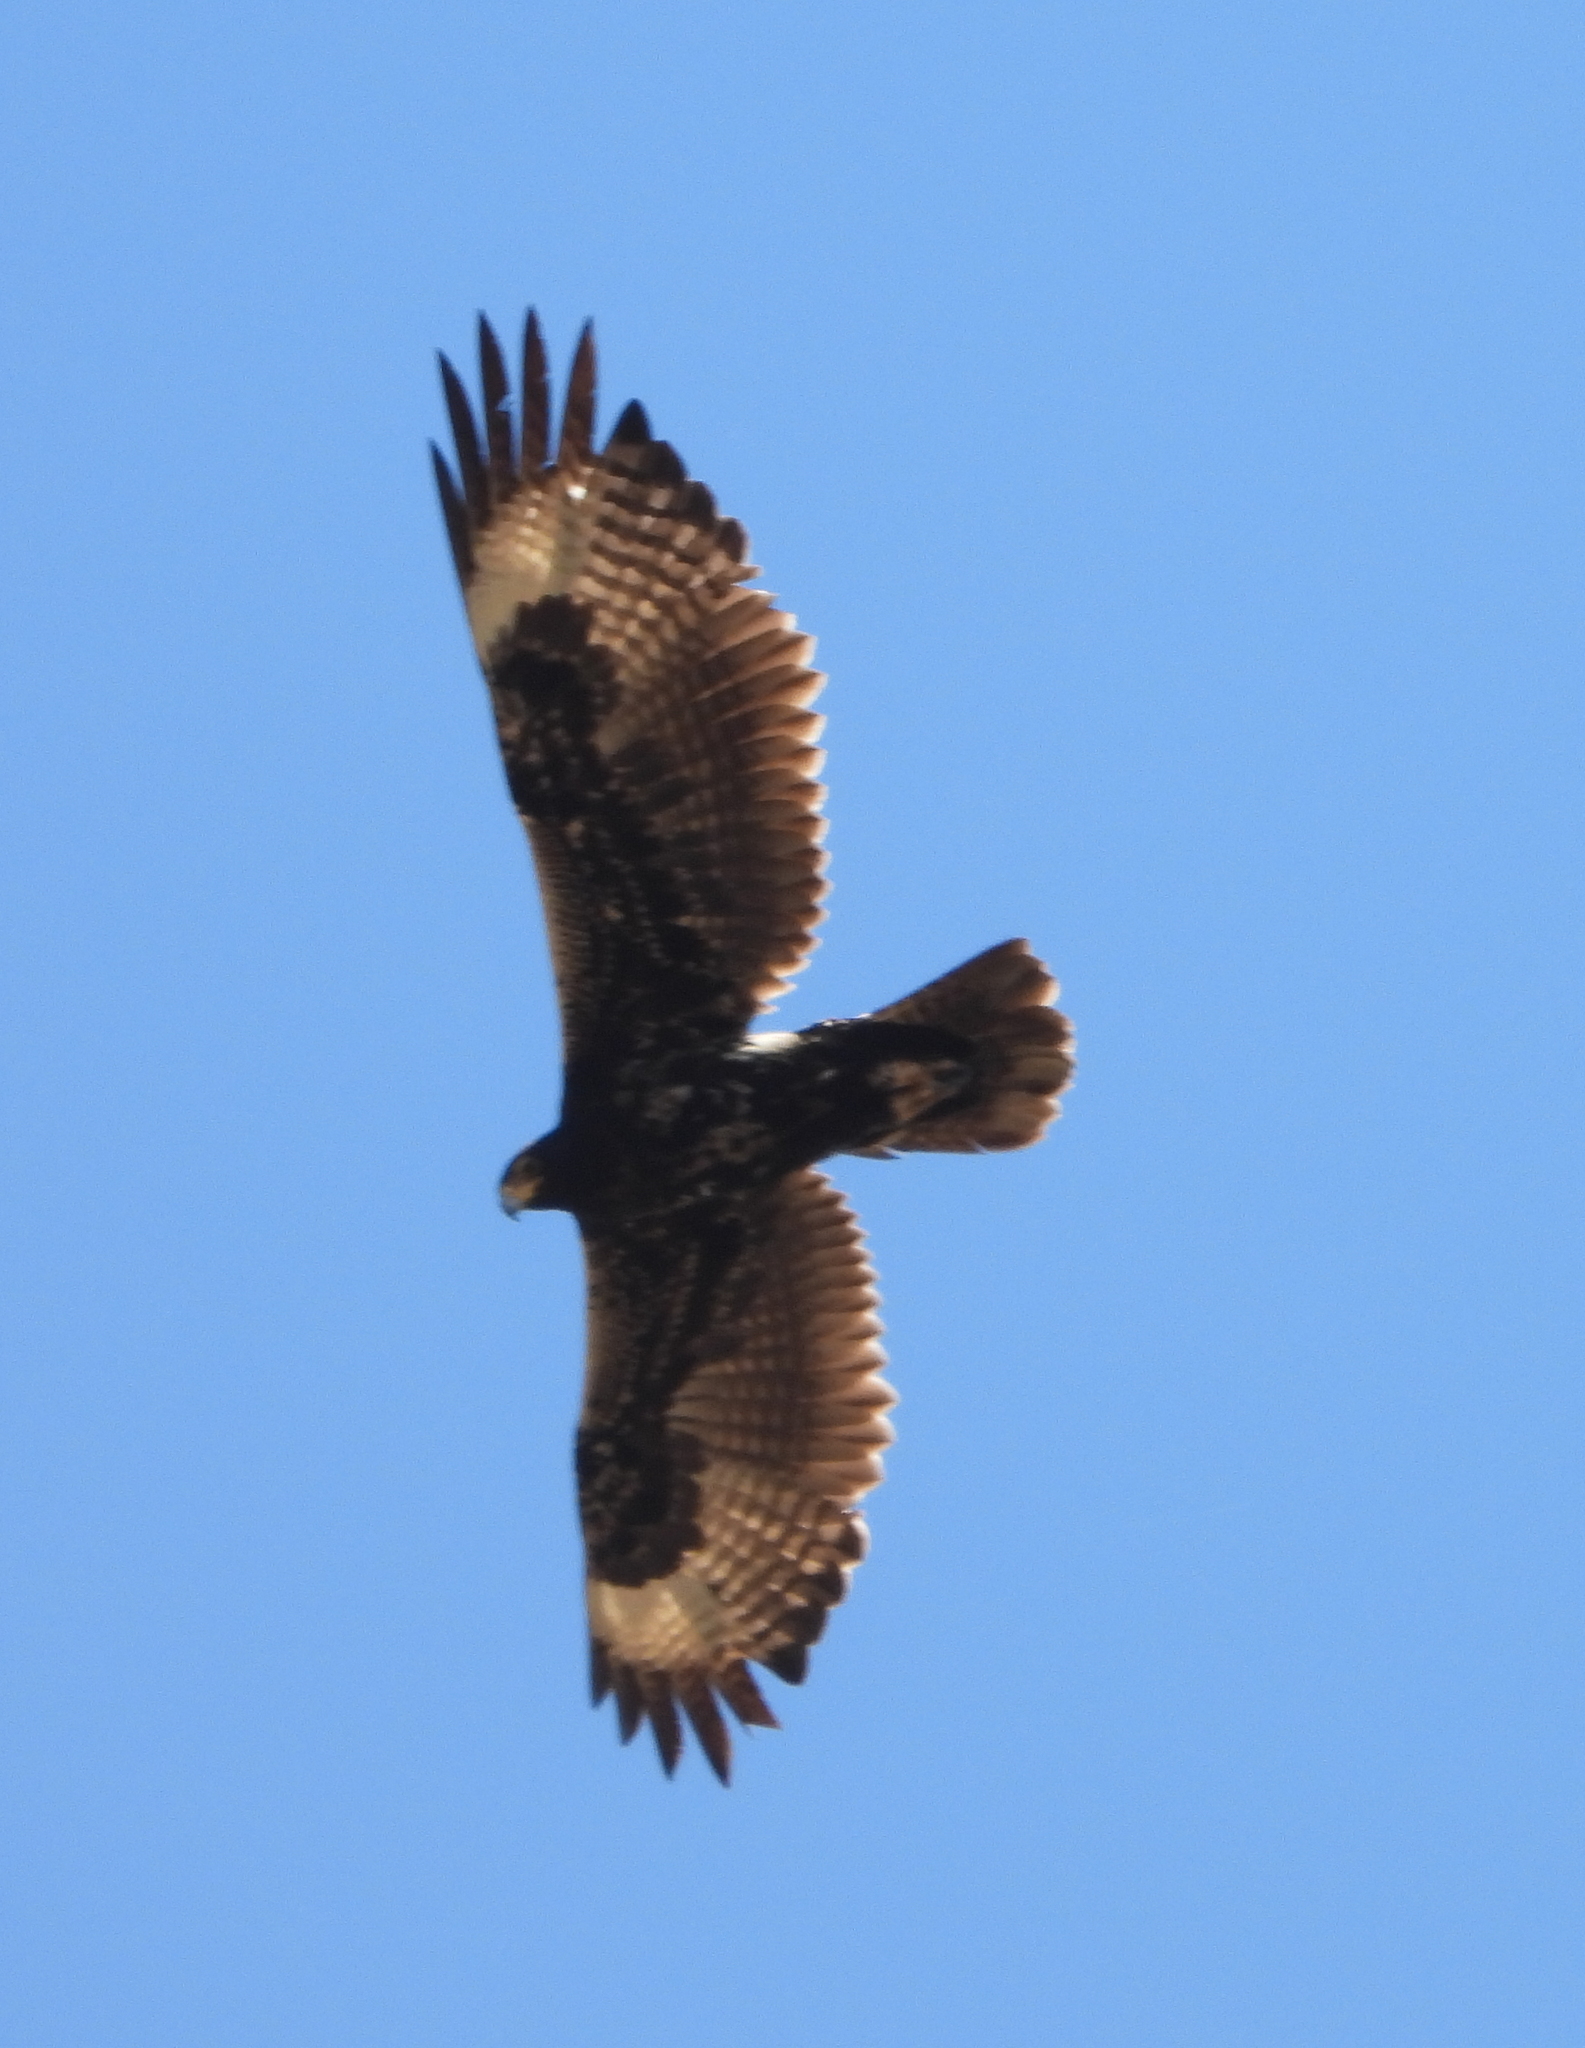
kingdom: Animalia
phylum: Chordata
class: Aves
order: Accipitriformes
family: Accipitridae
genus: Aquila
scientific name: Aquila verreauxii
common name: Verreaux's eagle
